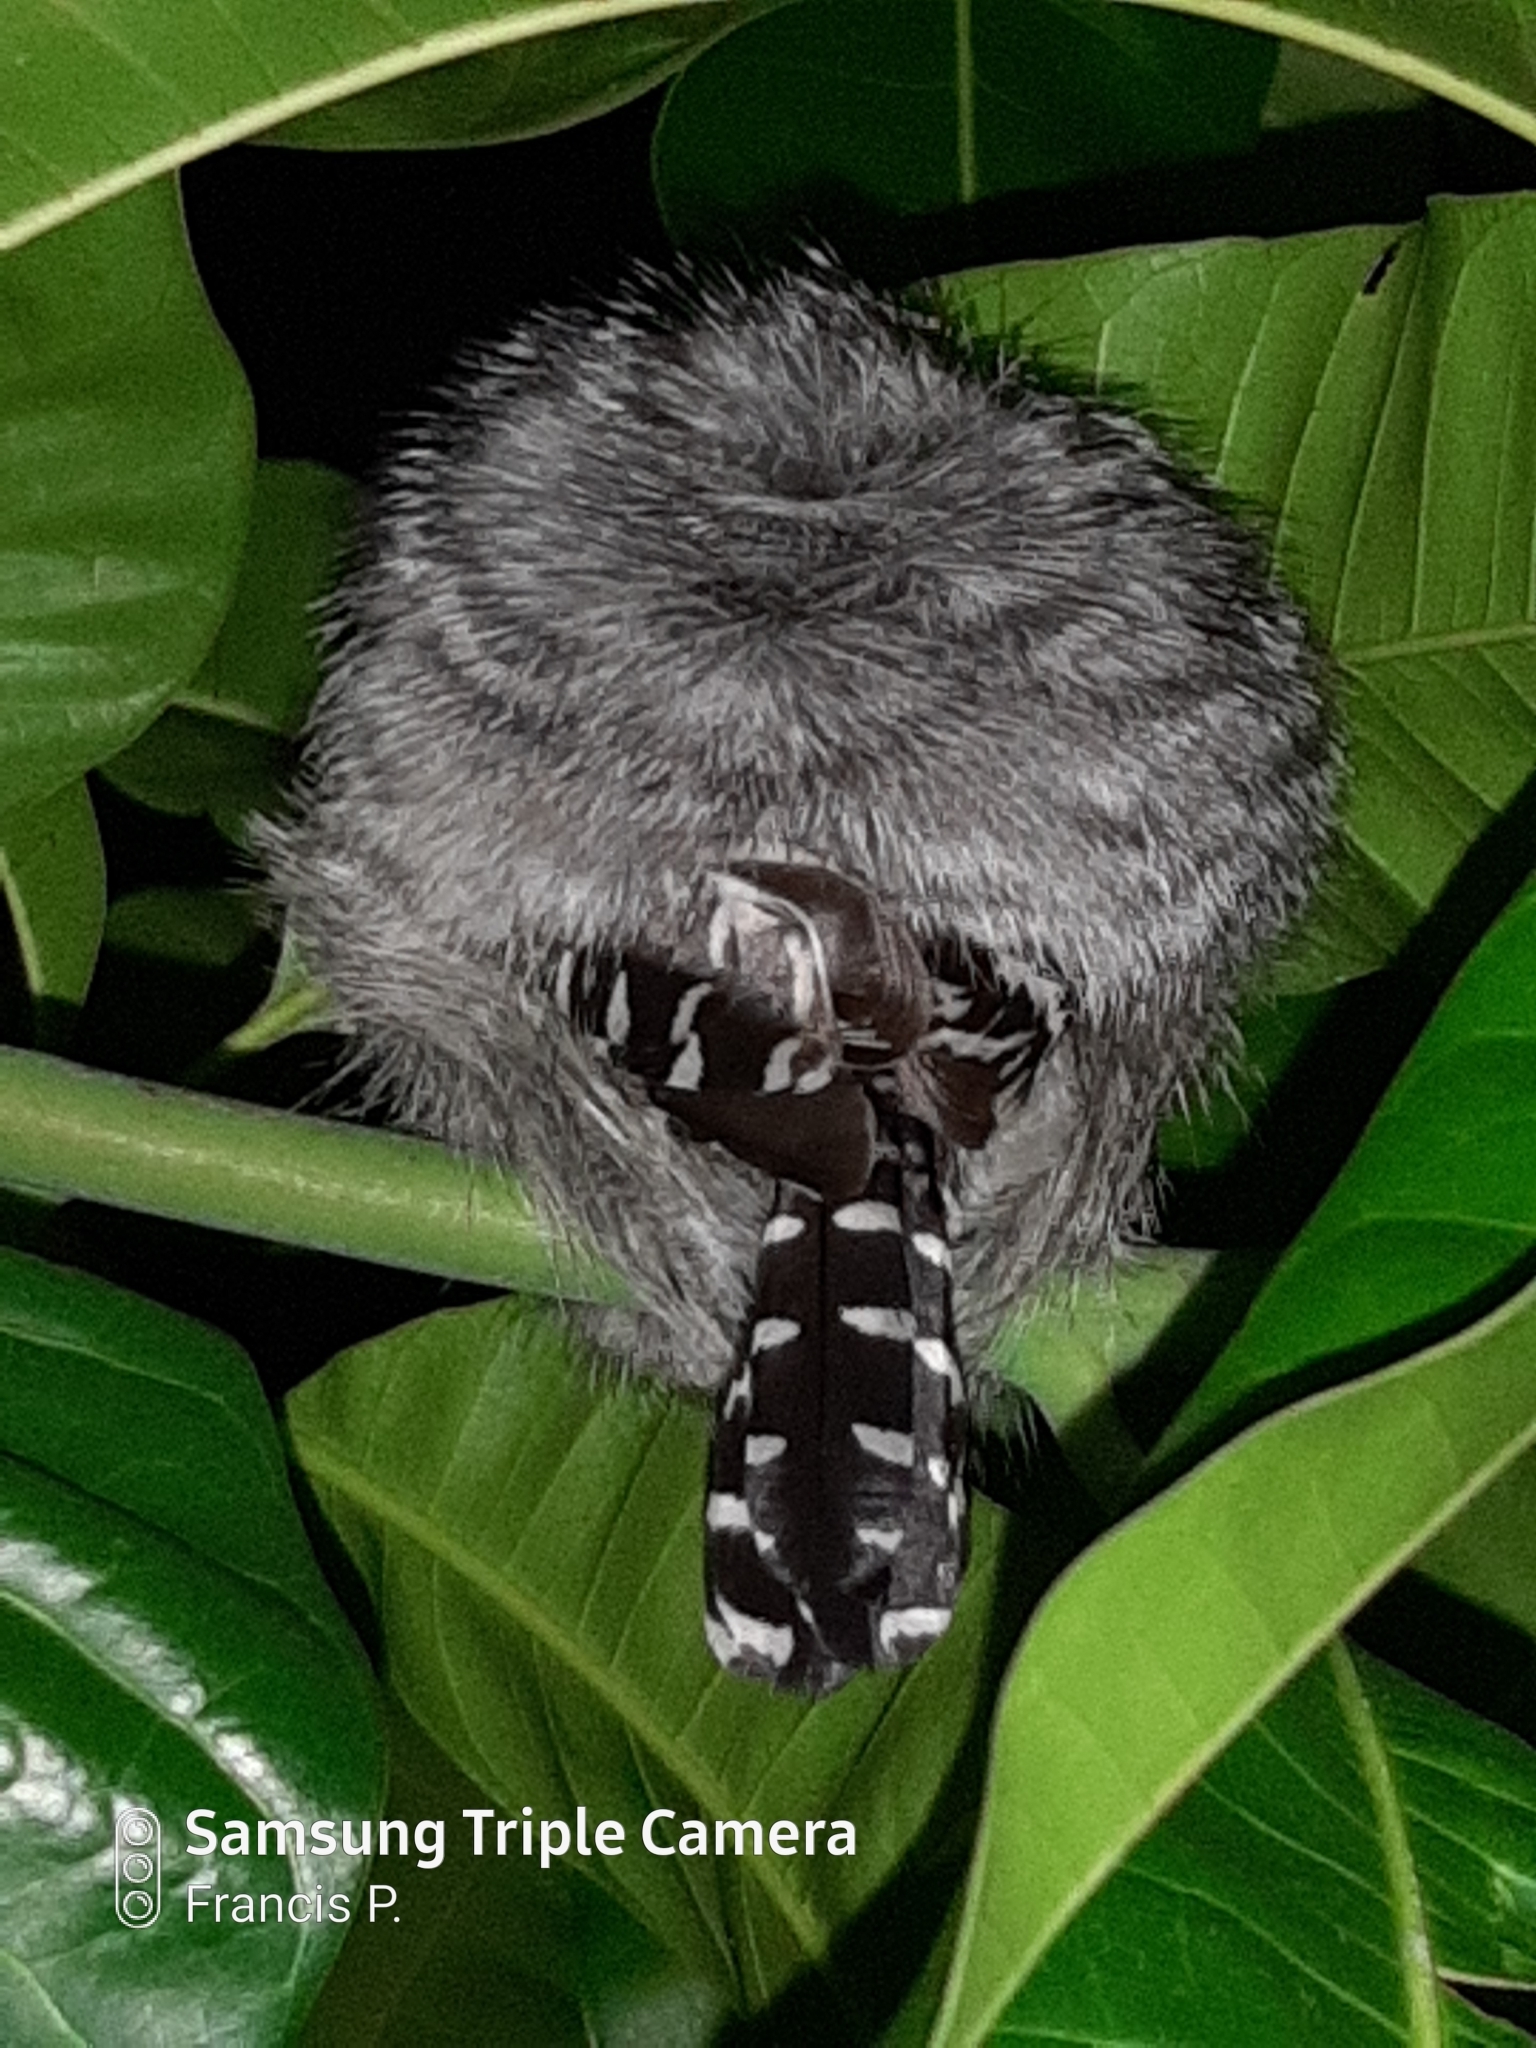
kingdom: Animalia
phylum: Chordata
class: Aves
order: Passeriformes
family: Thamnophilidae
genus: Thamnophilus
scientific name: Thamnophilus doliatus
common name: Barred antshrike
